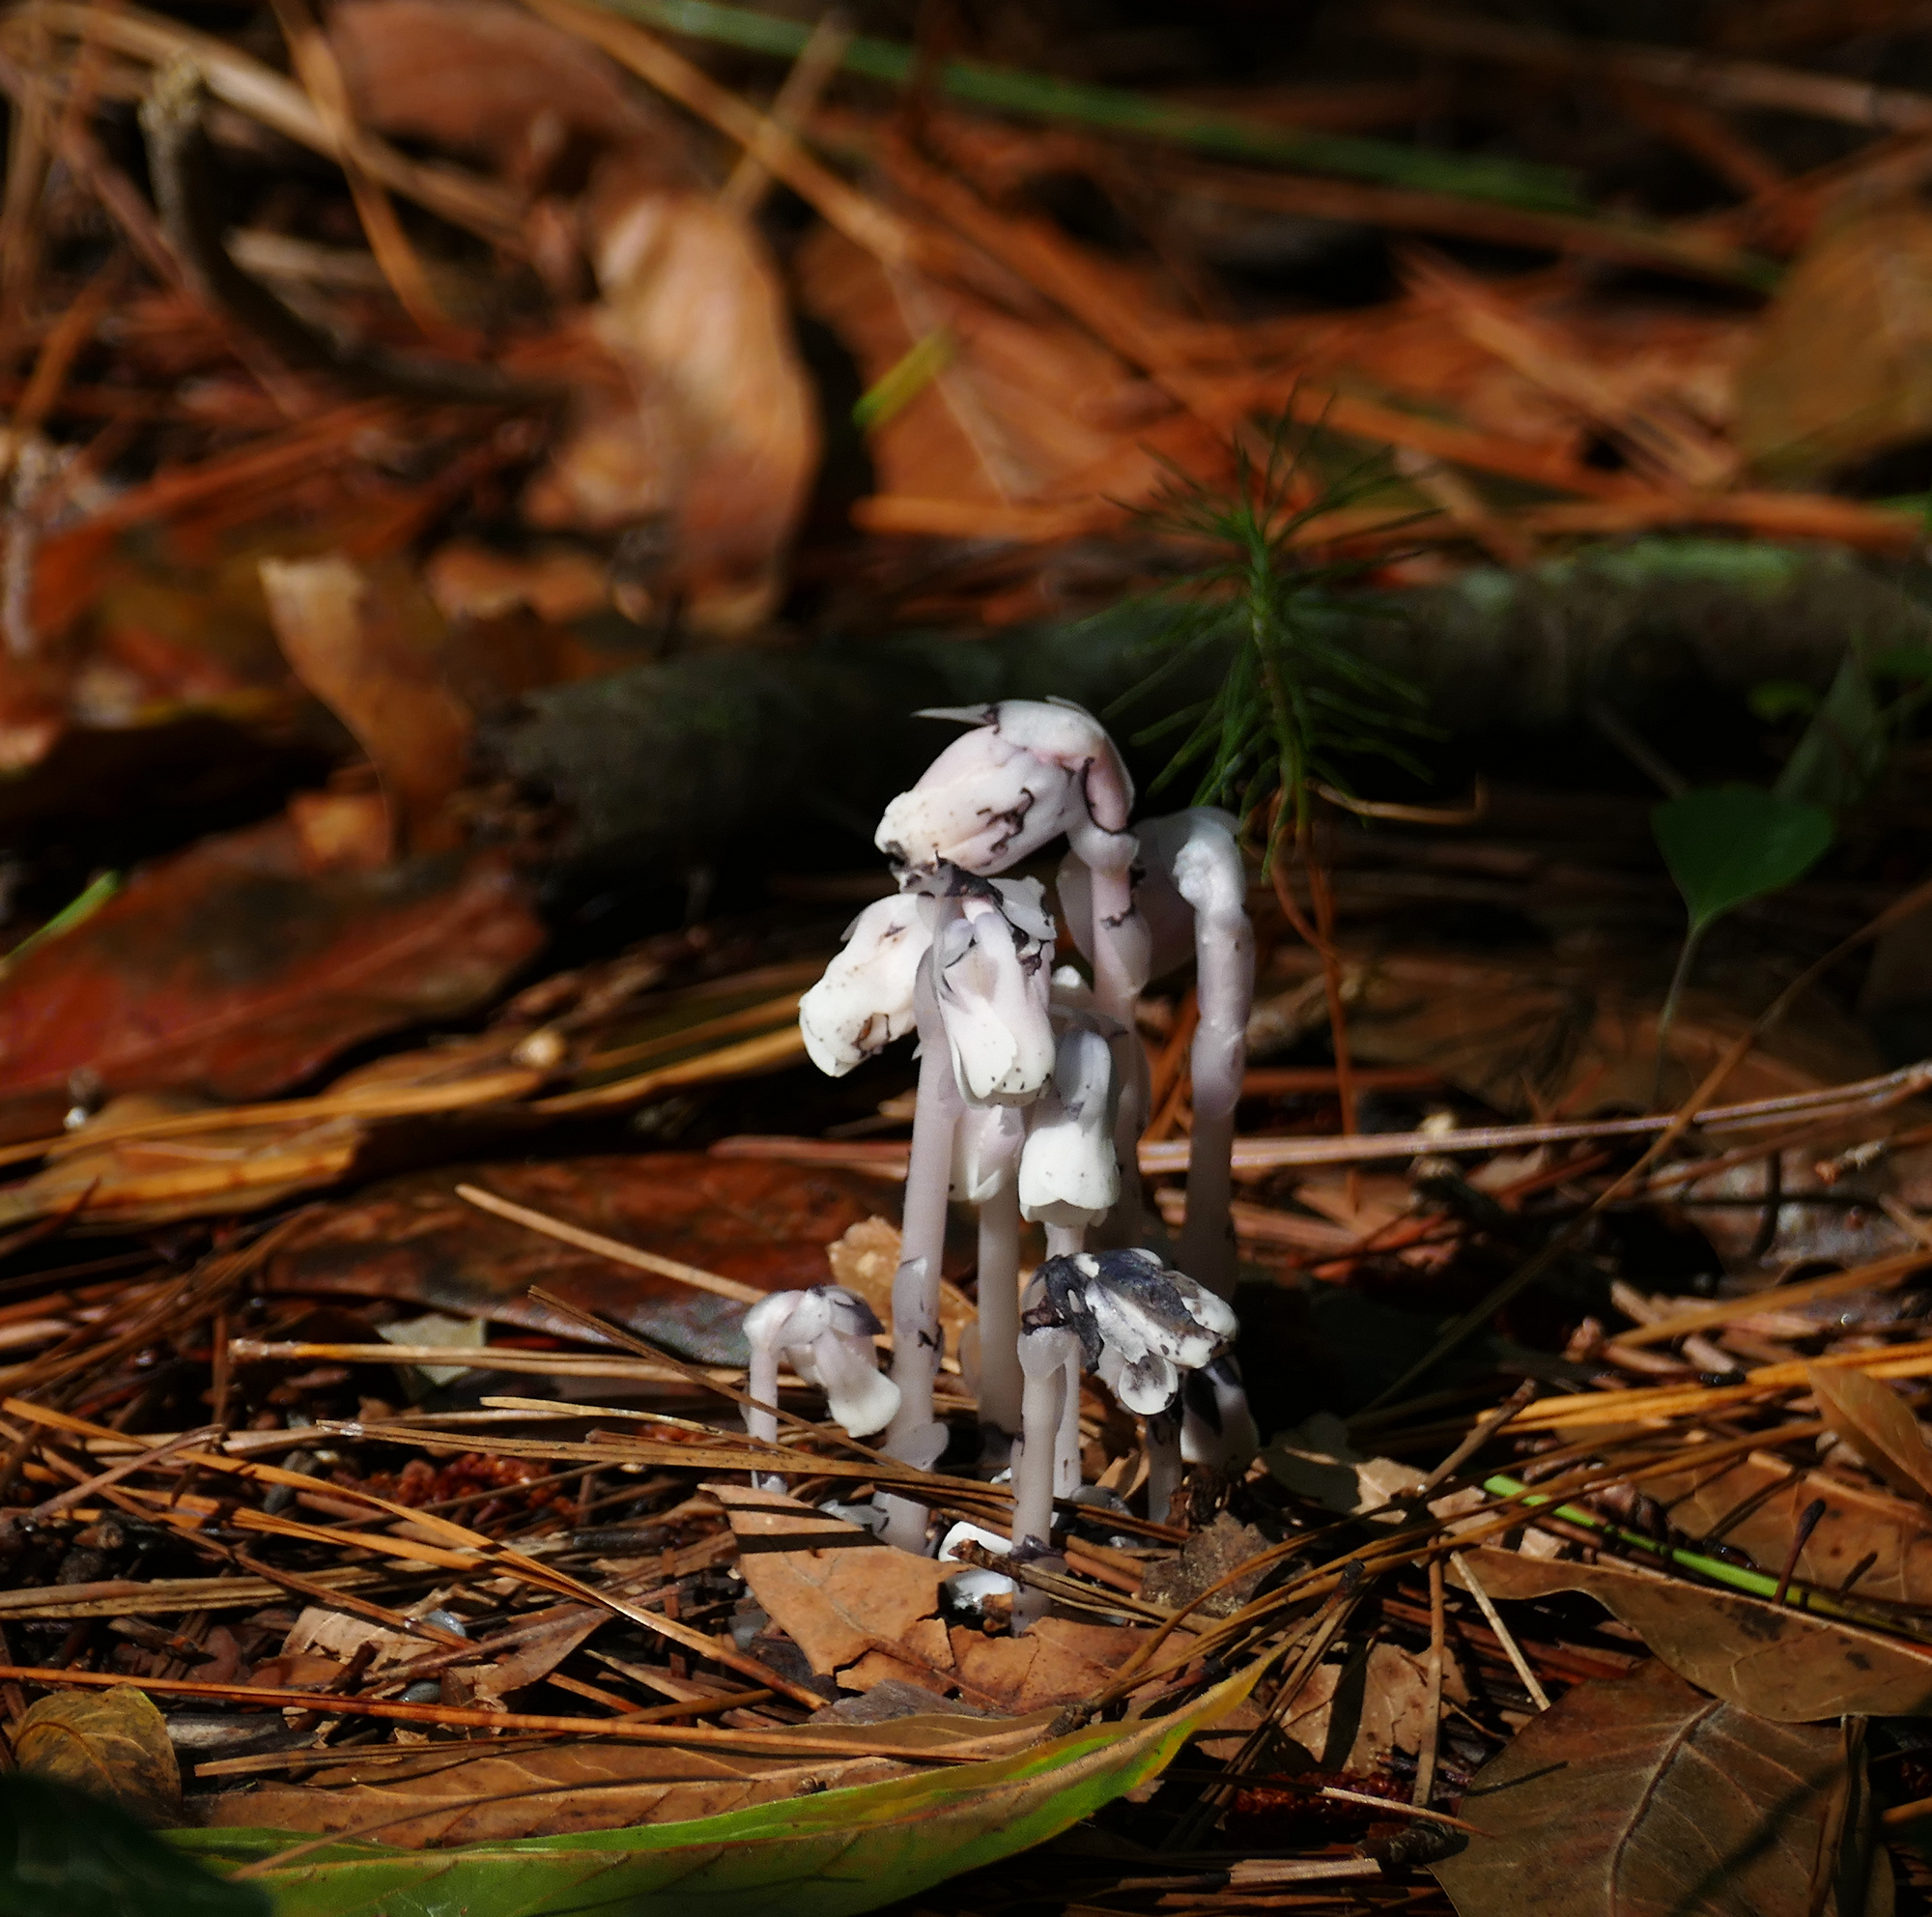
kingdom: Plantae
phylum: Tracheophyta
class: Magnoliopsida
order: Ericales
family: Ericaceae
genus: Monotropa
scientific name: Monotropa uniflora
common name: Convulsion root
